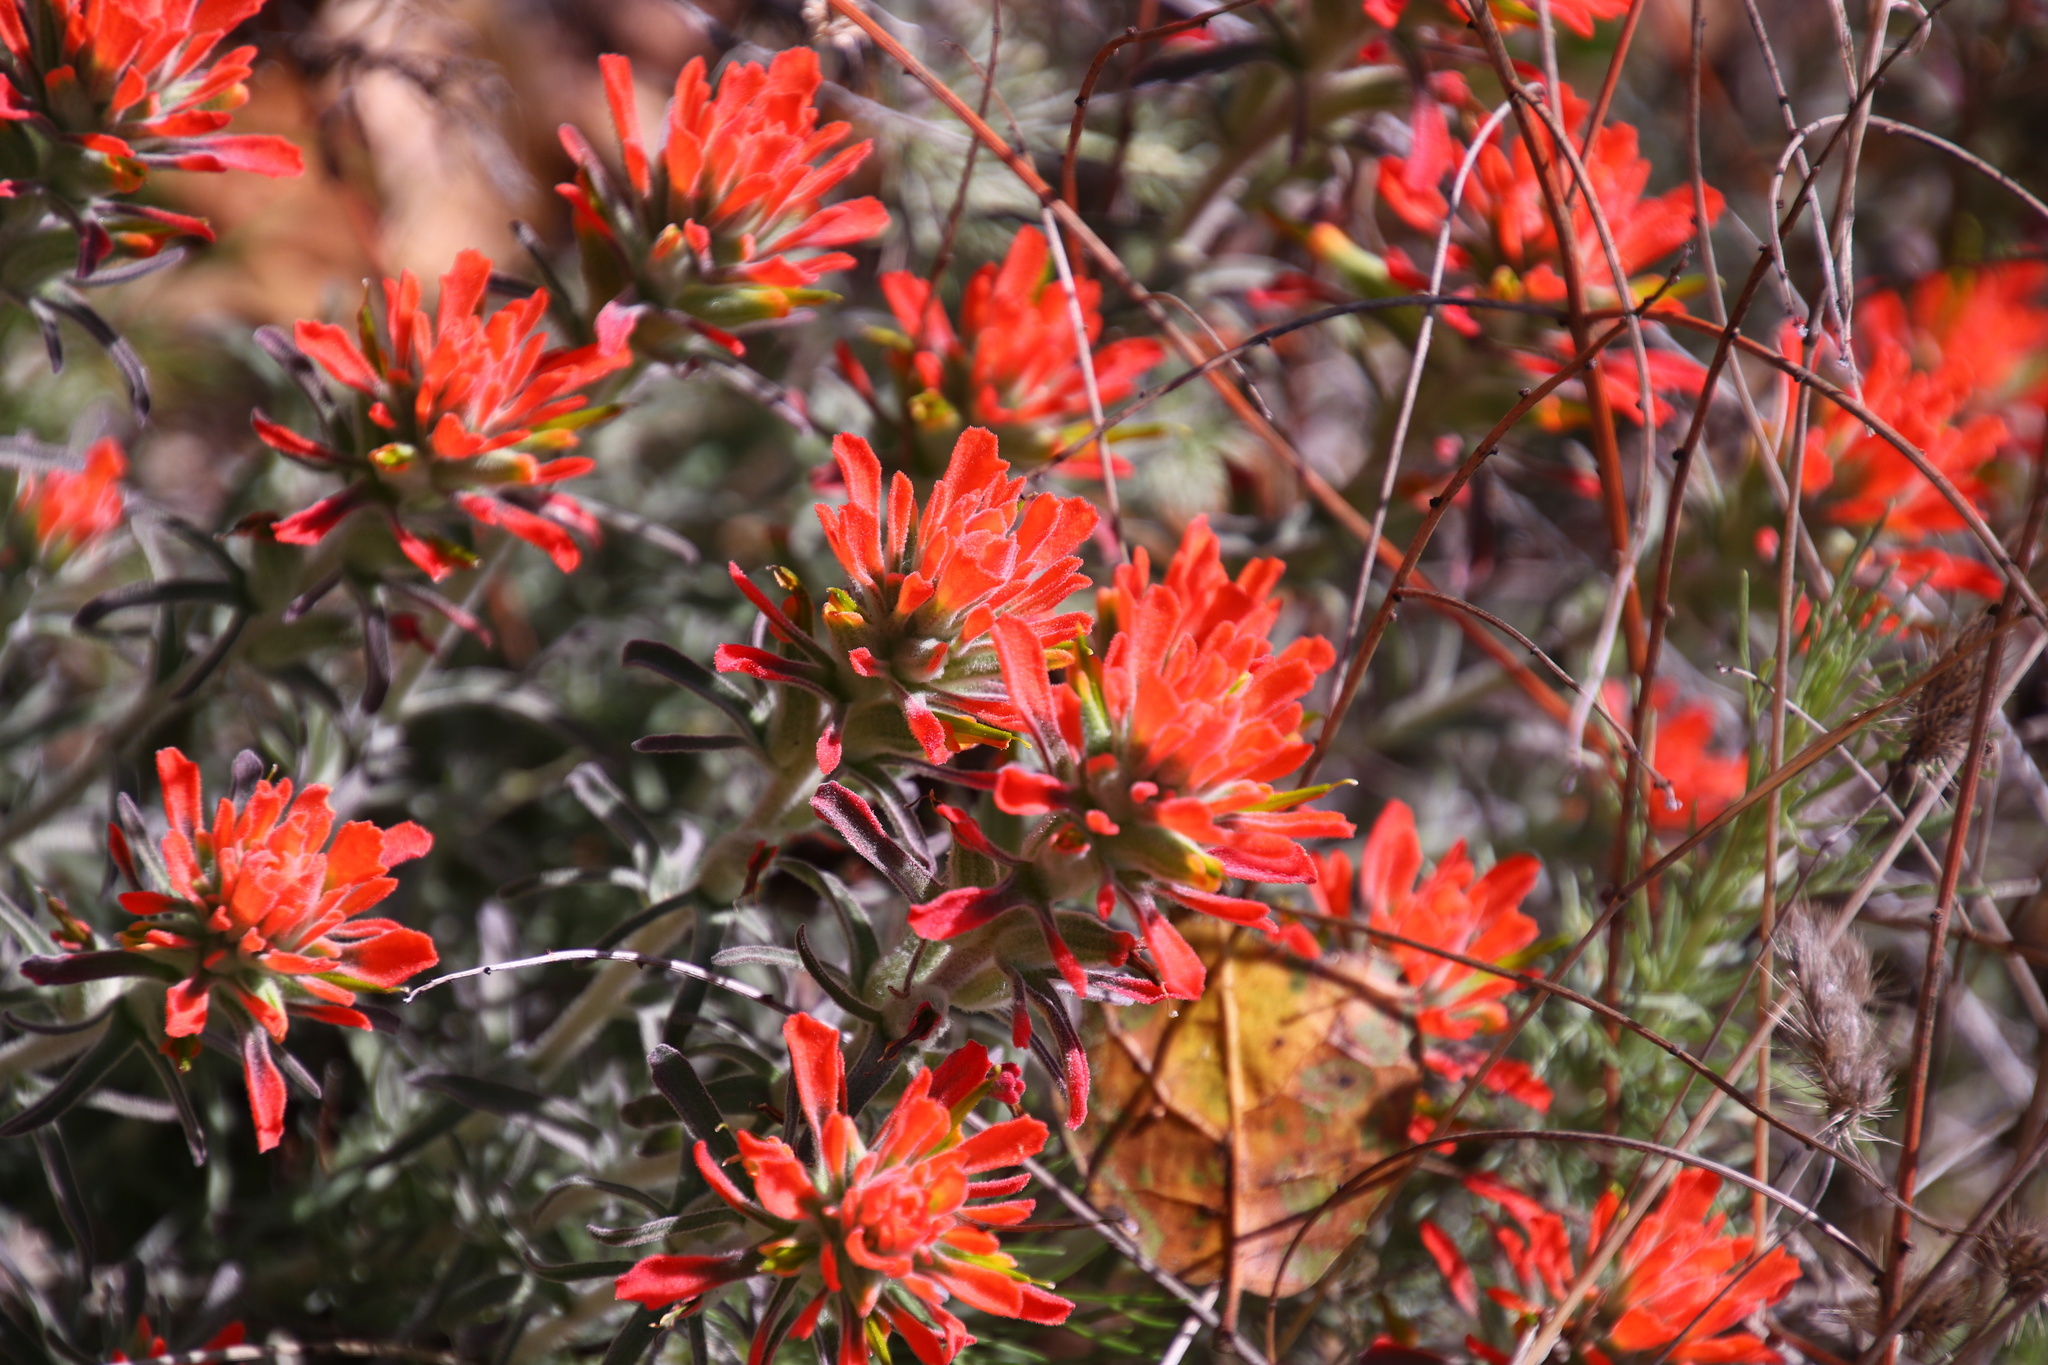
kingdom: Plantae
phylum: Tracheophyta
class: Magnoliopsida
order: Lamiales
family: Orobanchaceae
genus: Castilleja
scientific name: Castilleja foliolosa
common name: Woolly indian paintbrush
